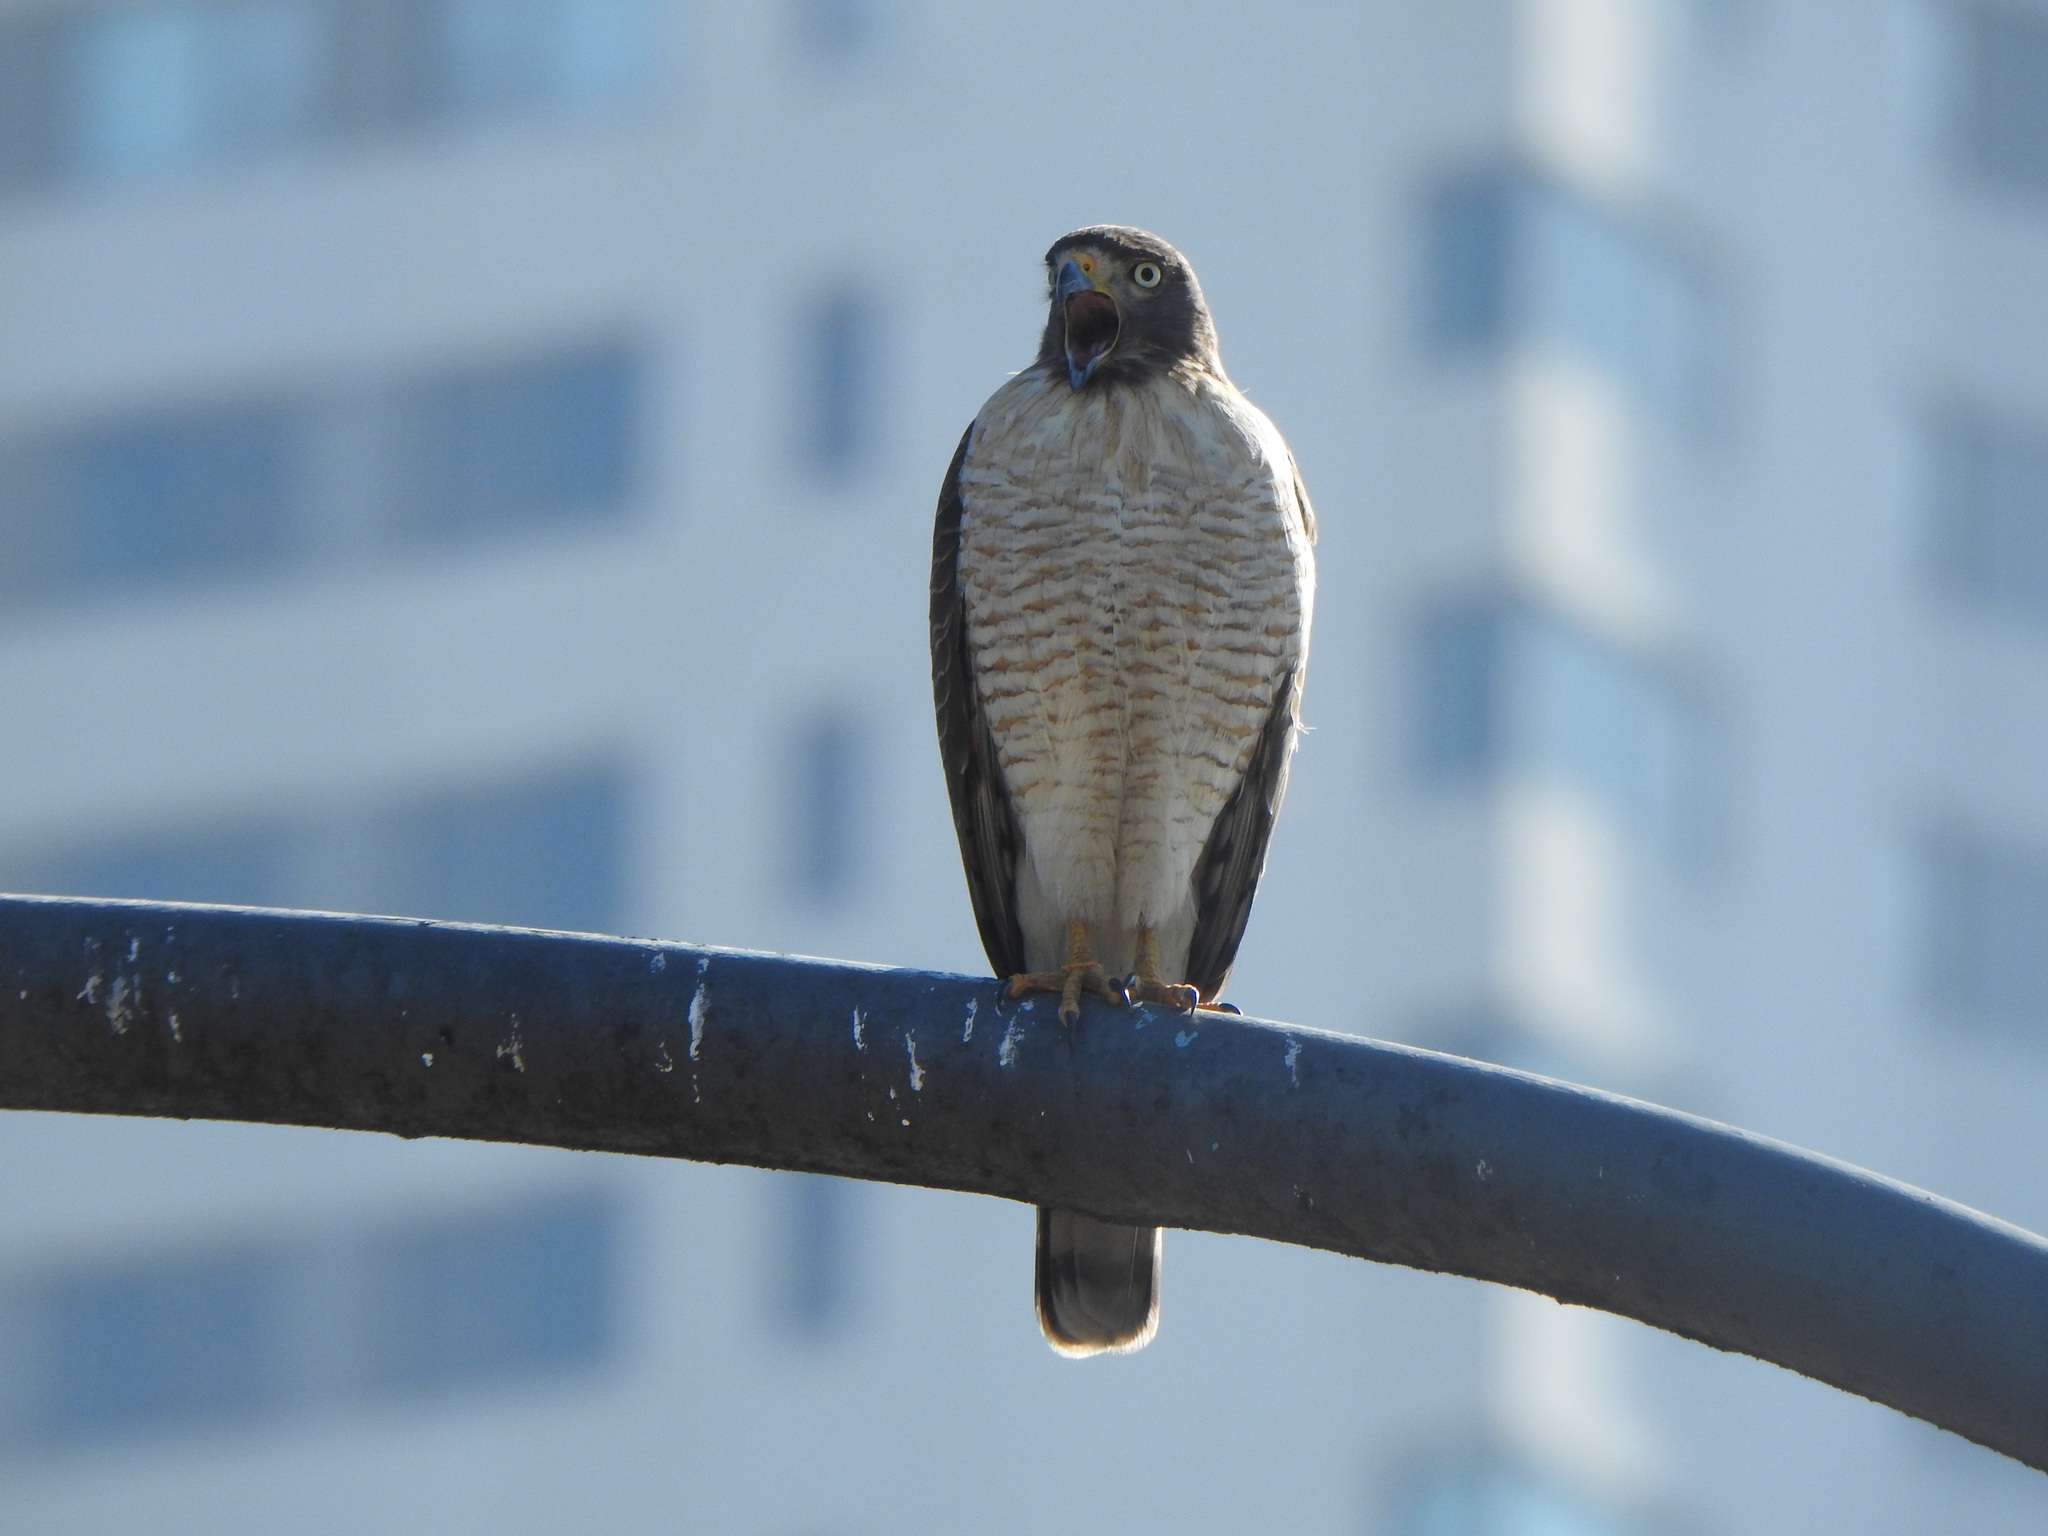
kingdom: Animalia
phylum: Chordata
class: Aves
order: Accipitriformes
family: Accipitridae
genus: Rupornis
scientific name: Rupornis magnirostris
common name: Roadside hawk
